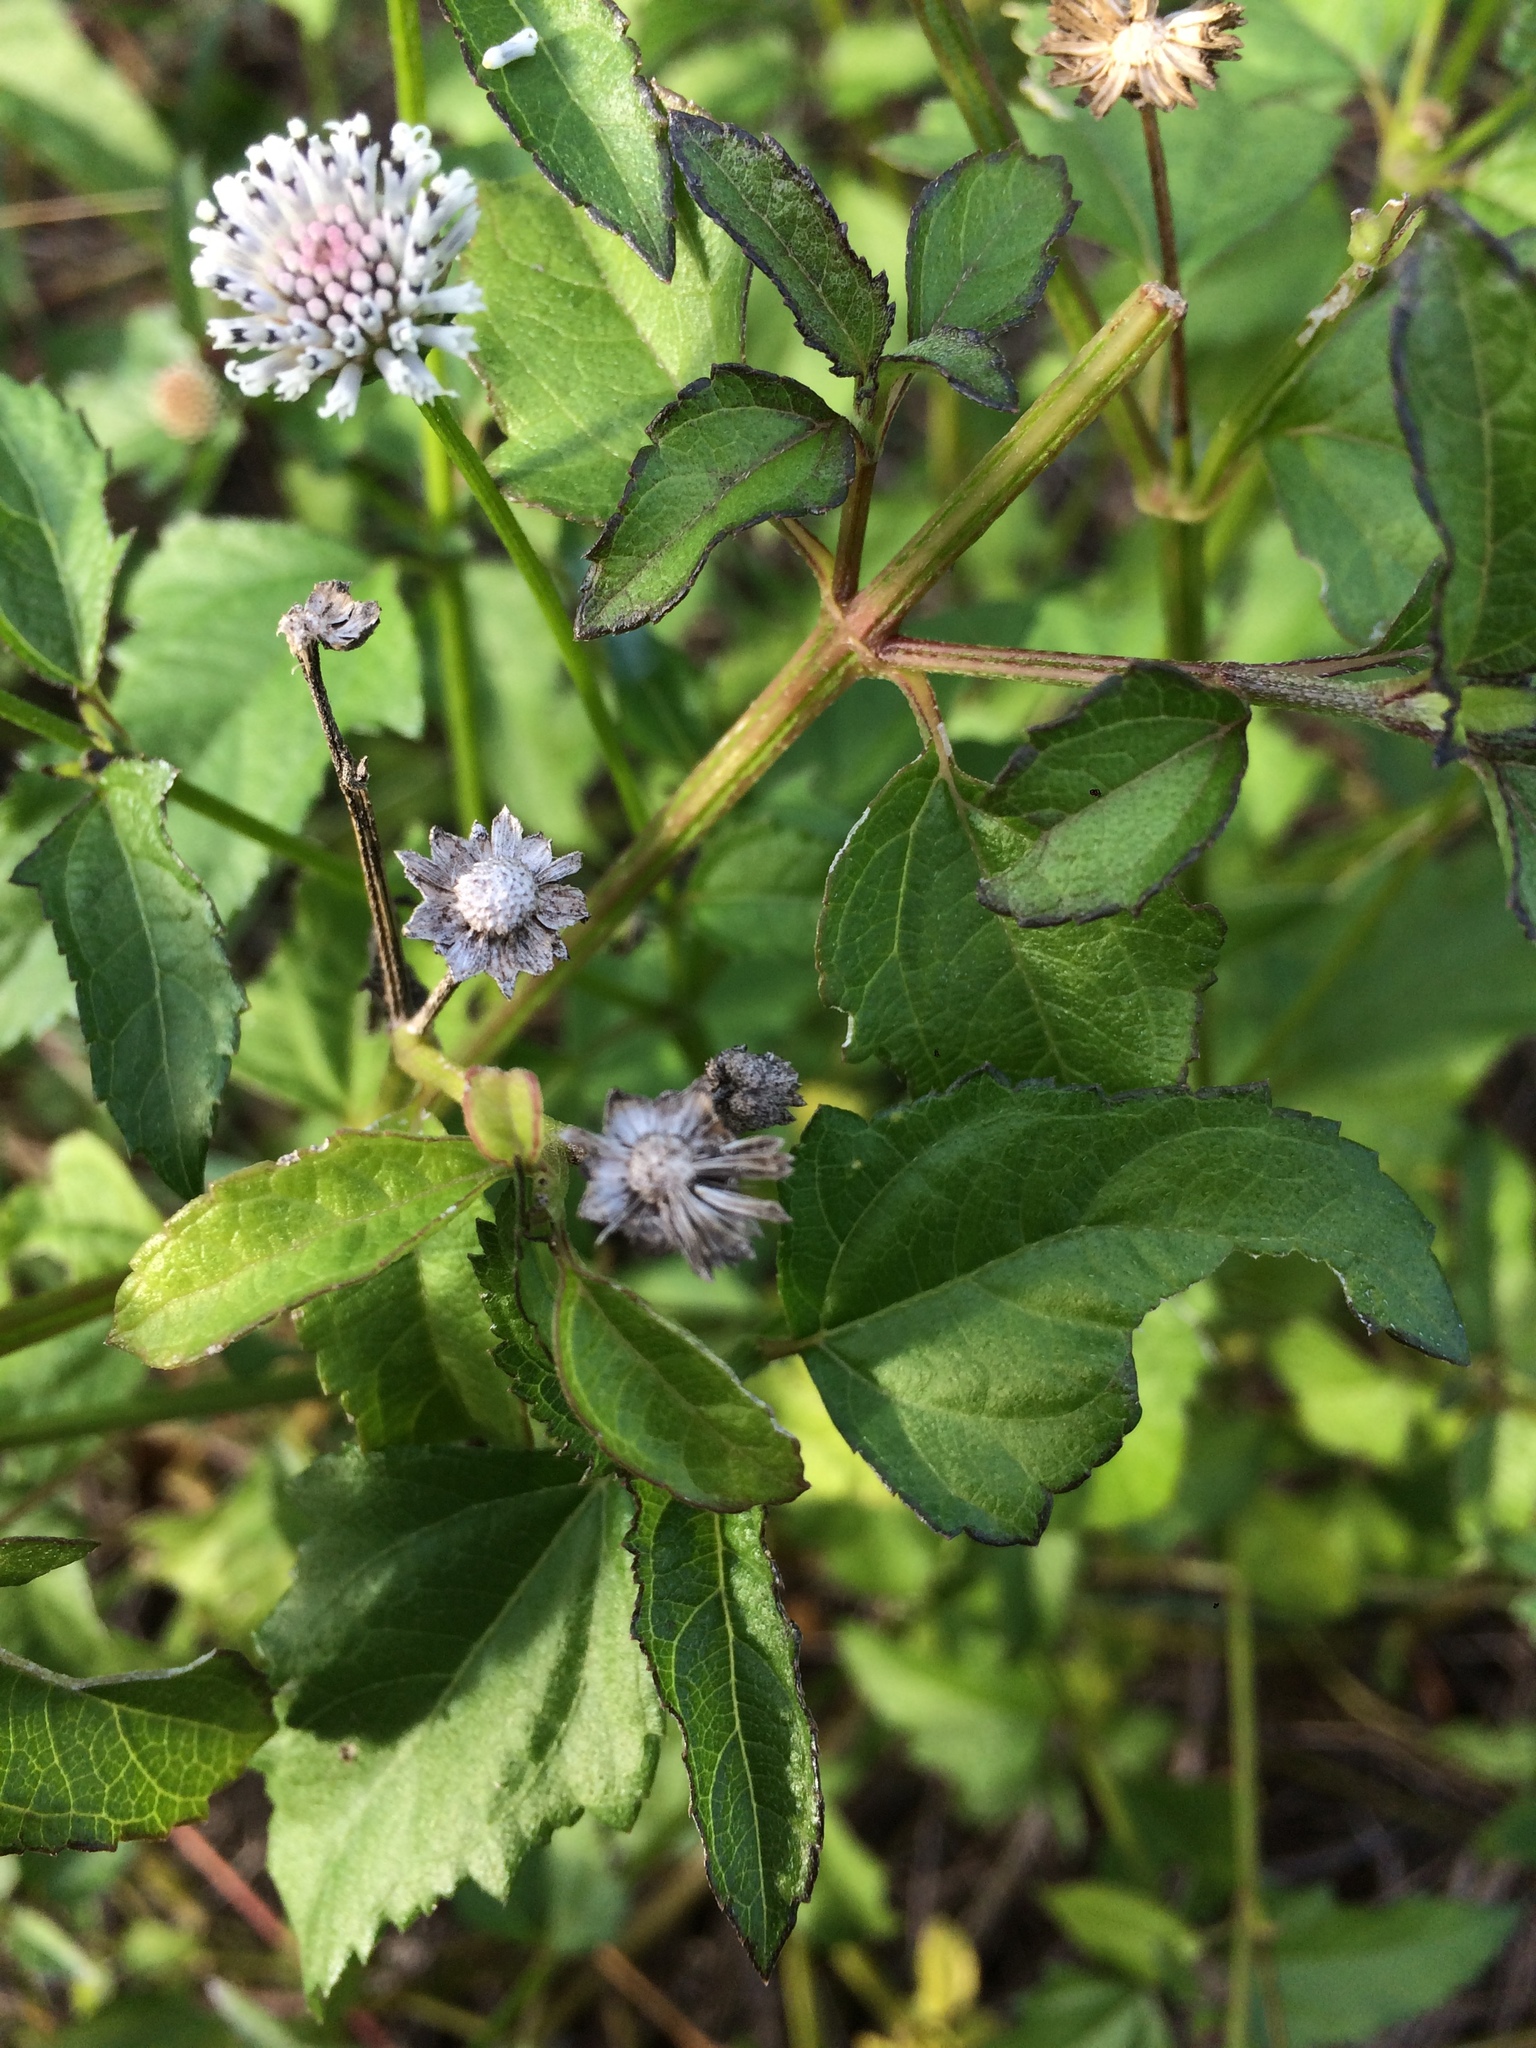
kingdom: Plantae
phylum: Tracheophyta
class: Magnoliopsida
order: Asterales
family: Asteraceae
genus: Melanthera
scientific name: Melanthera nivea
